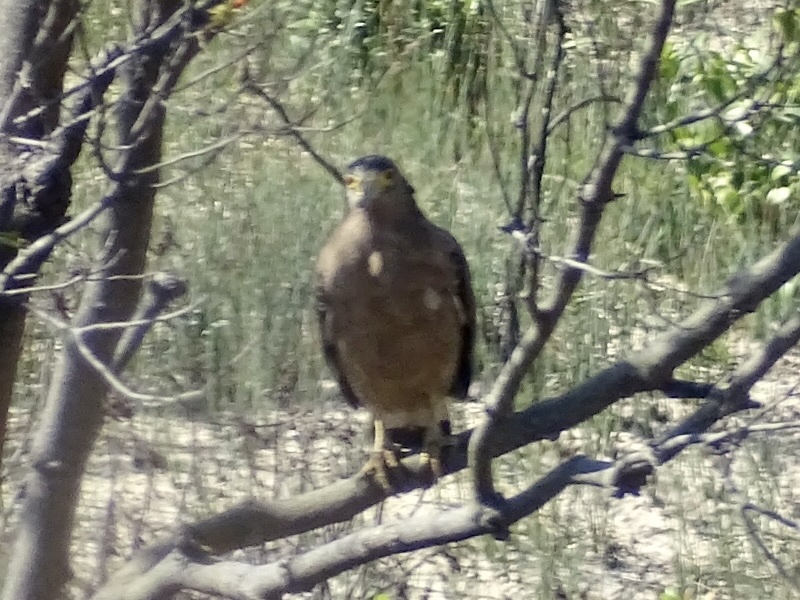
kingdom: Animalia
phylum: Chordata
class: Aves
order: Accipitriformes
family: Accipitridae
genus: Spilornis
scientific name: Spilornis cheela
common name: Crested serpent eagle
